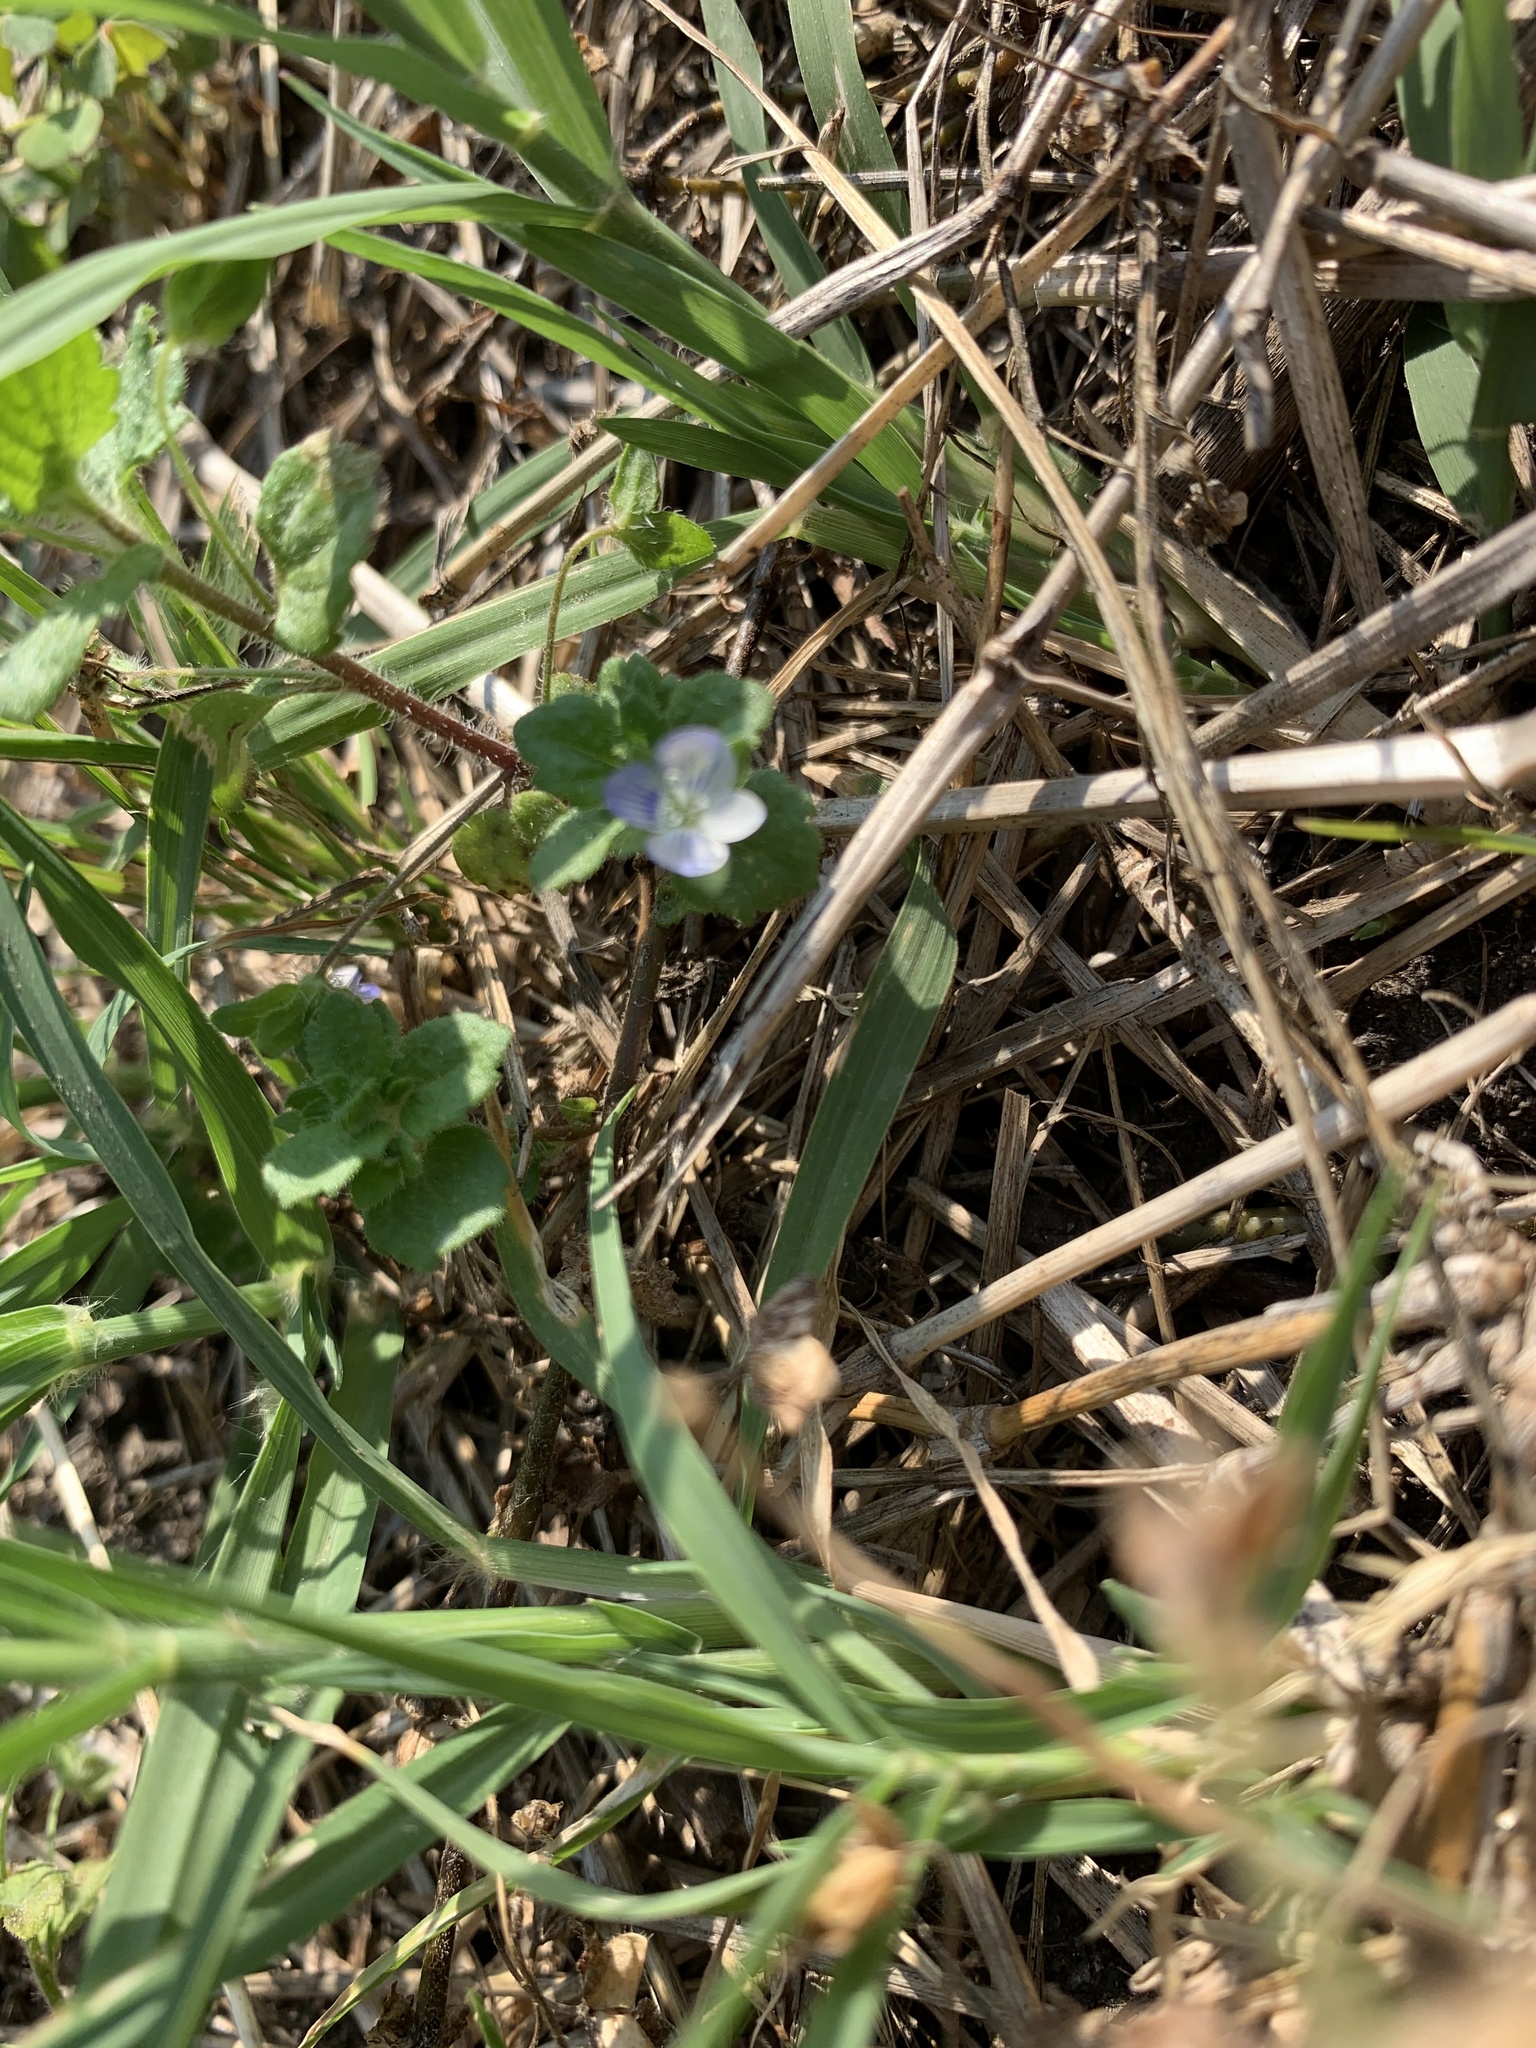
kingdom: Plantae
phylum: Tracheophyta
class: Magnoliopsida
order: Lamiales
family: Plantaginaceae
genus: Veronica
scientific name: Veronica persica
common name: Common field-speedwell
